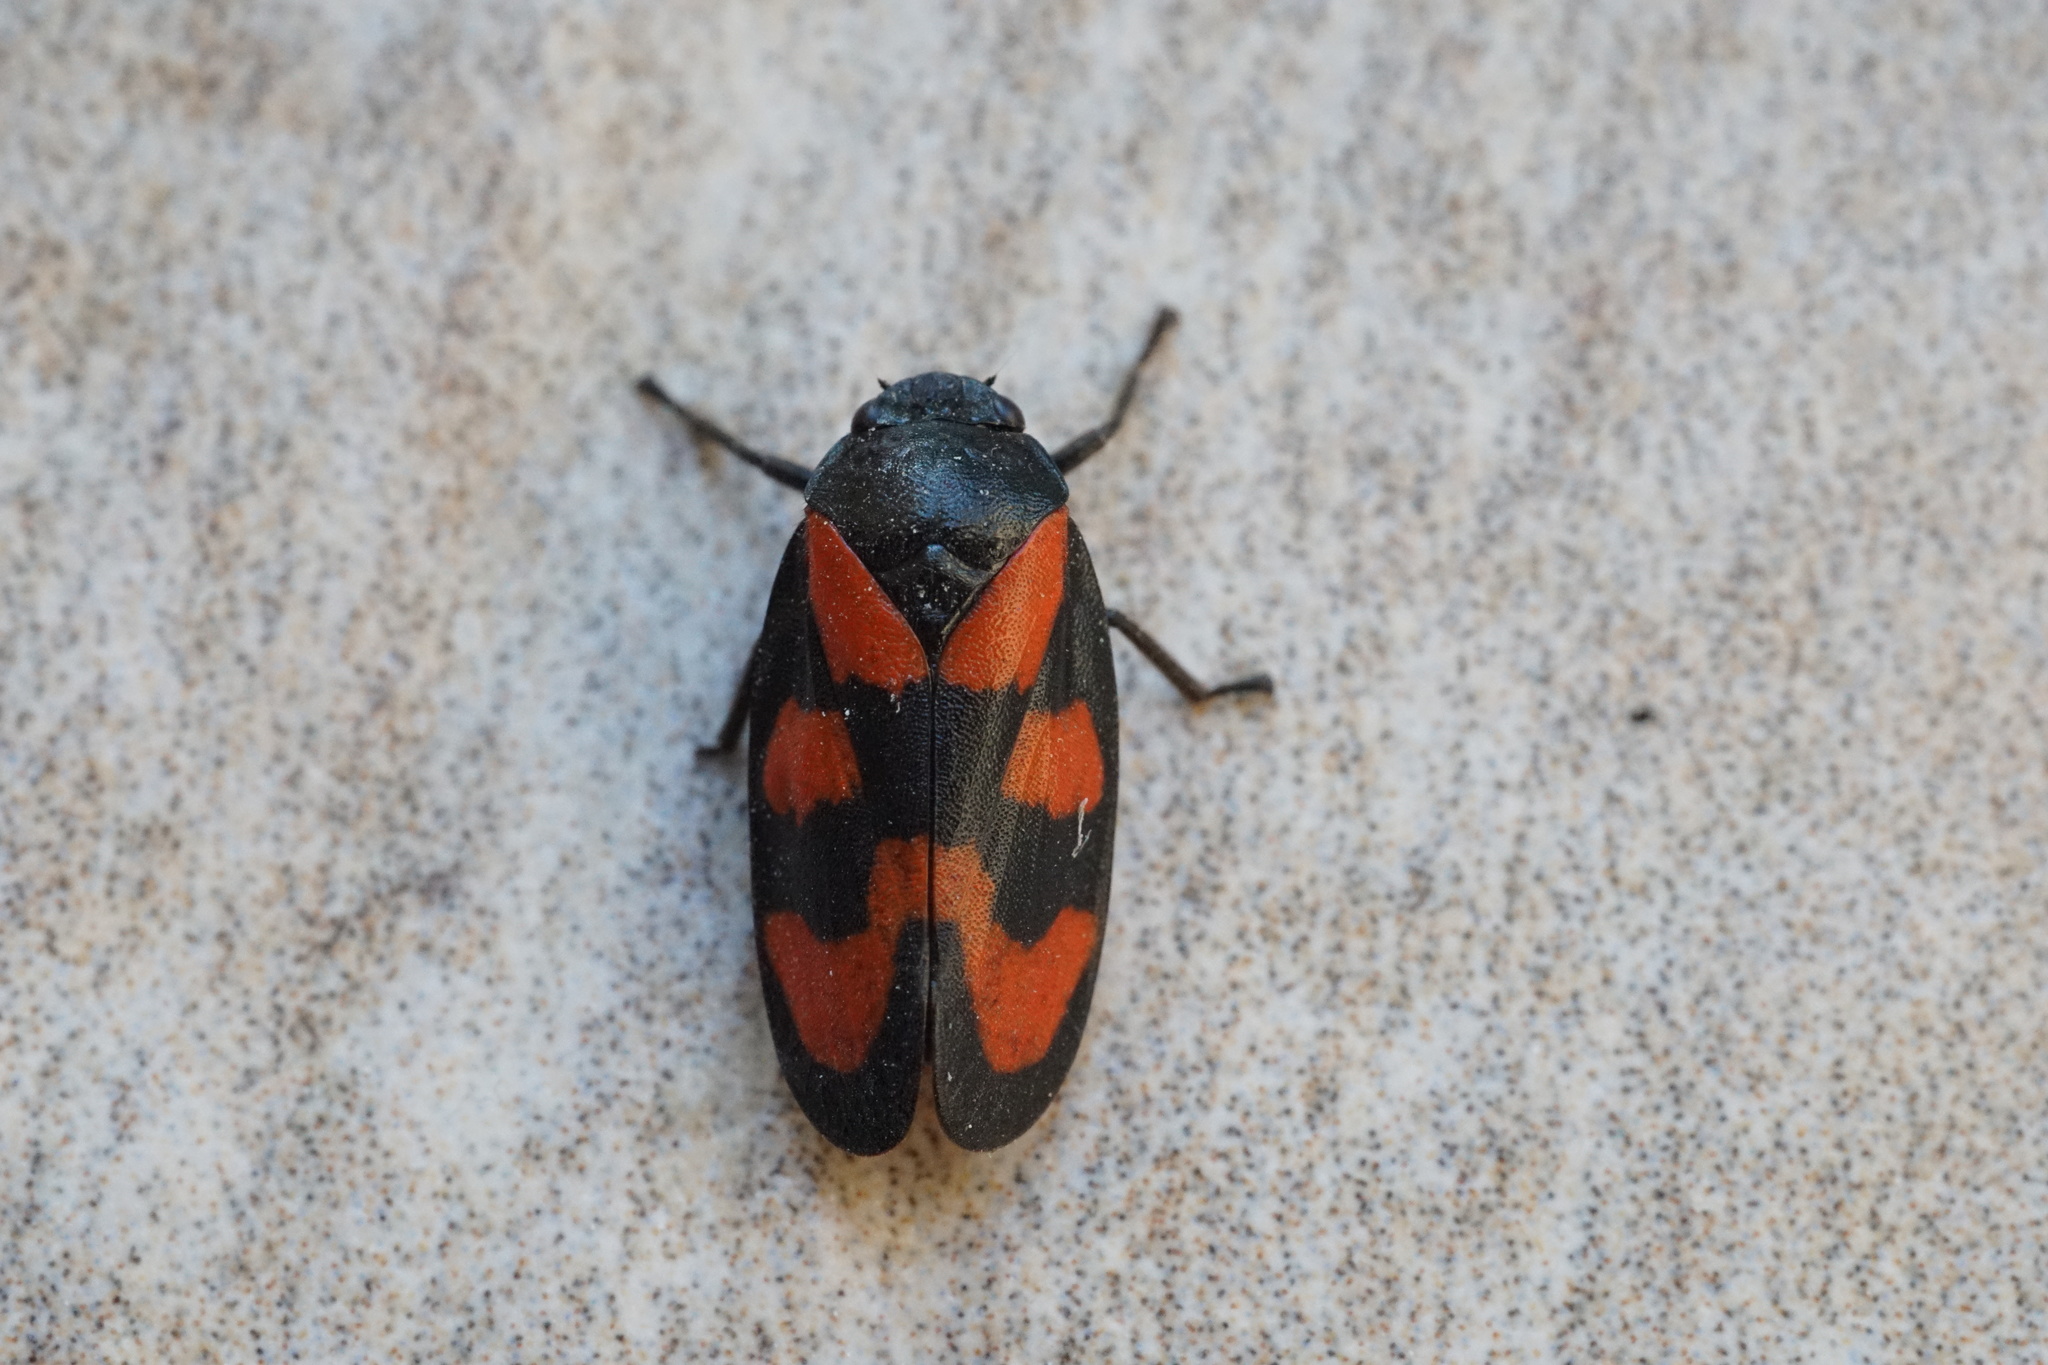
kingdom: Animalia
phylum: Arthropoda
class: Insecta
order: Hemiptera
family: Cercopidae
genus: Cercopis
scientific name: Cercopis vulnerata
